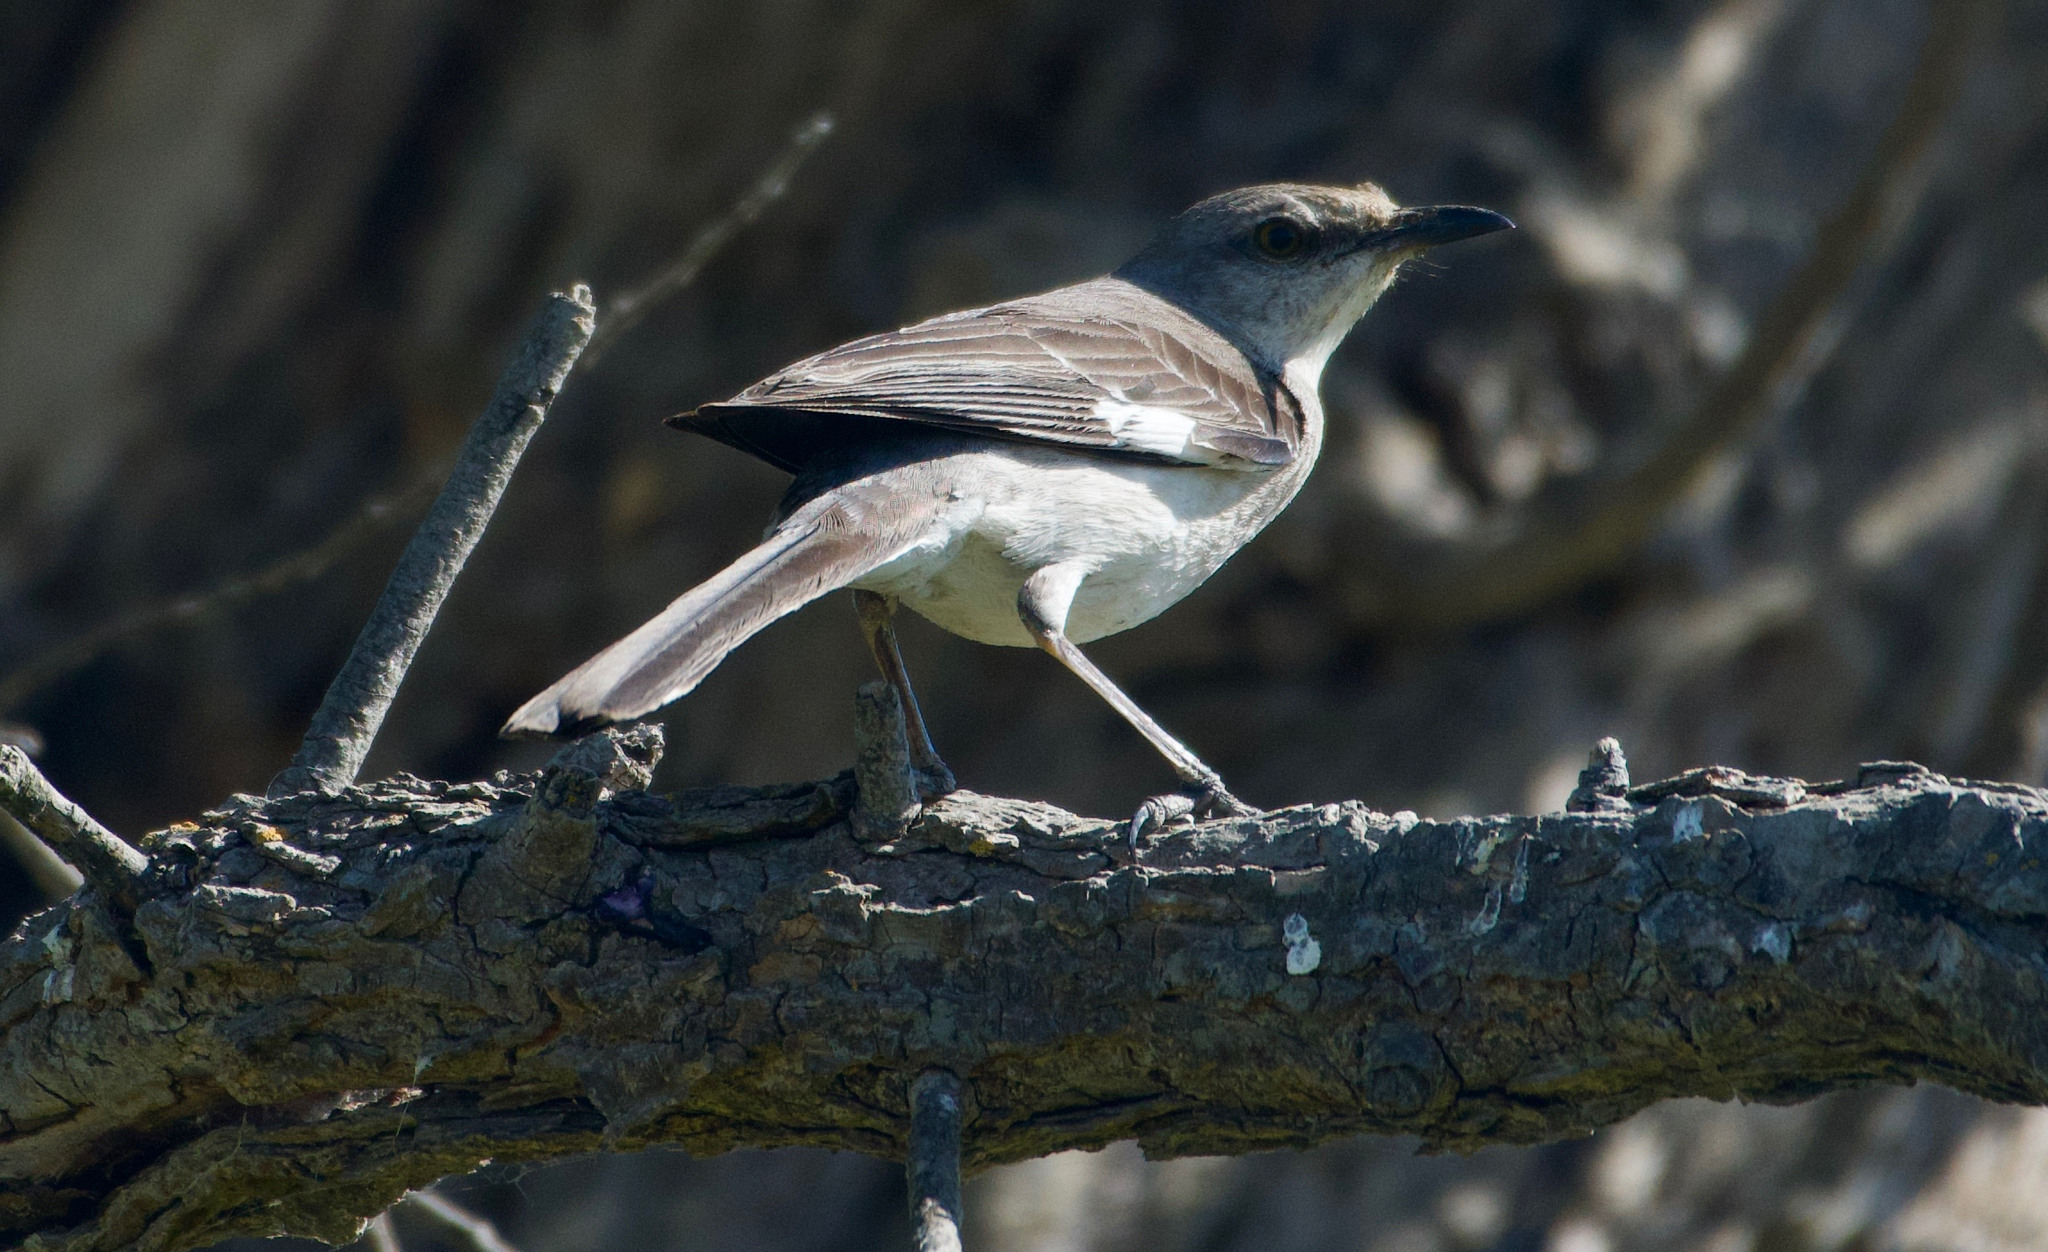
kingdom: Animalia
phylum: Chordata
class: Aves
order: Passeriformes
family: Mimidae
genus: Mimus
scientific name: Mimus polyglottos
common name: Northern mockingbird
